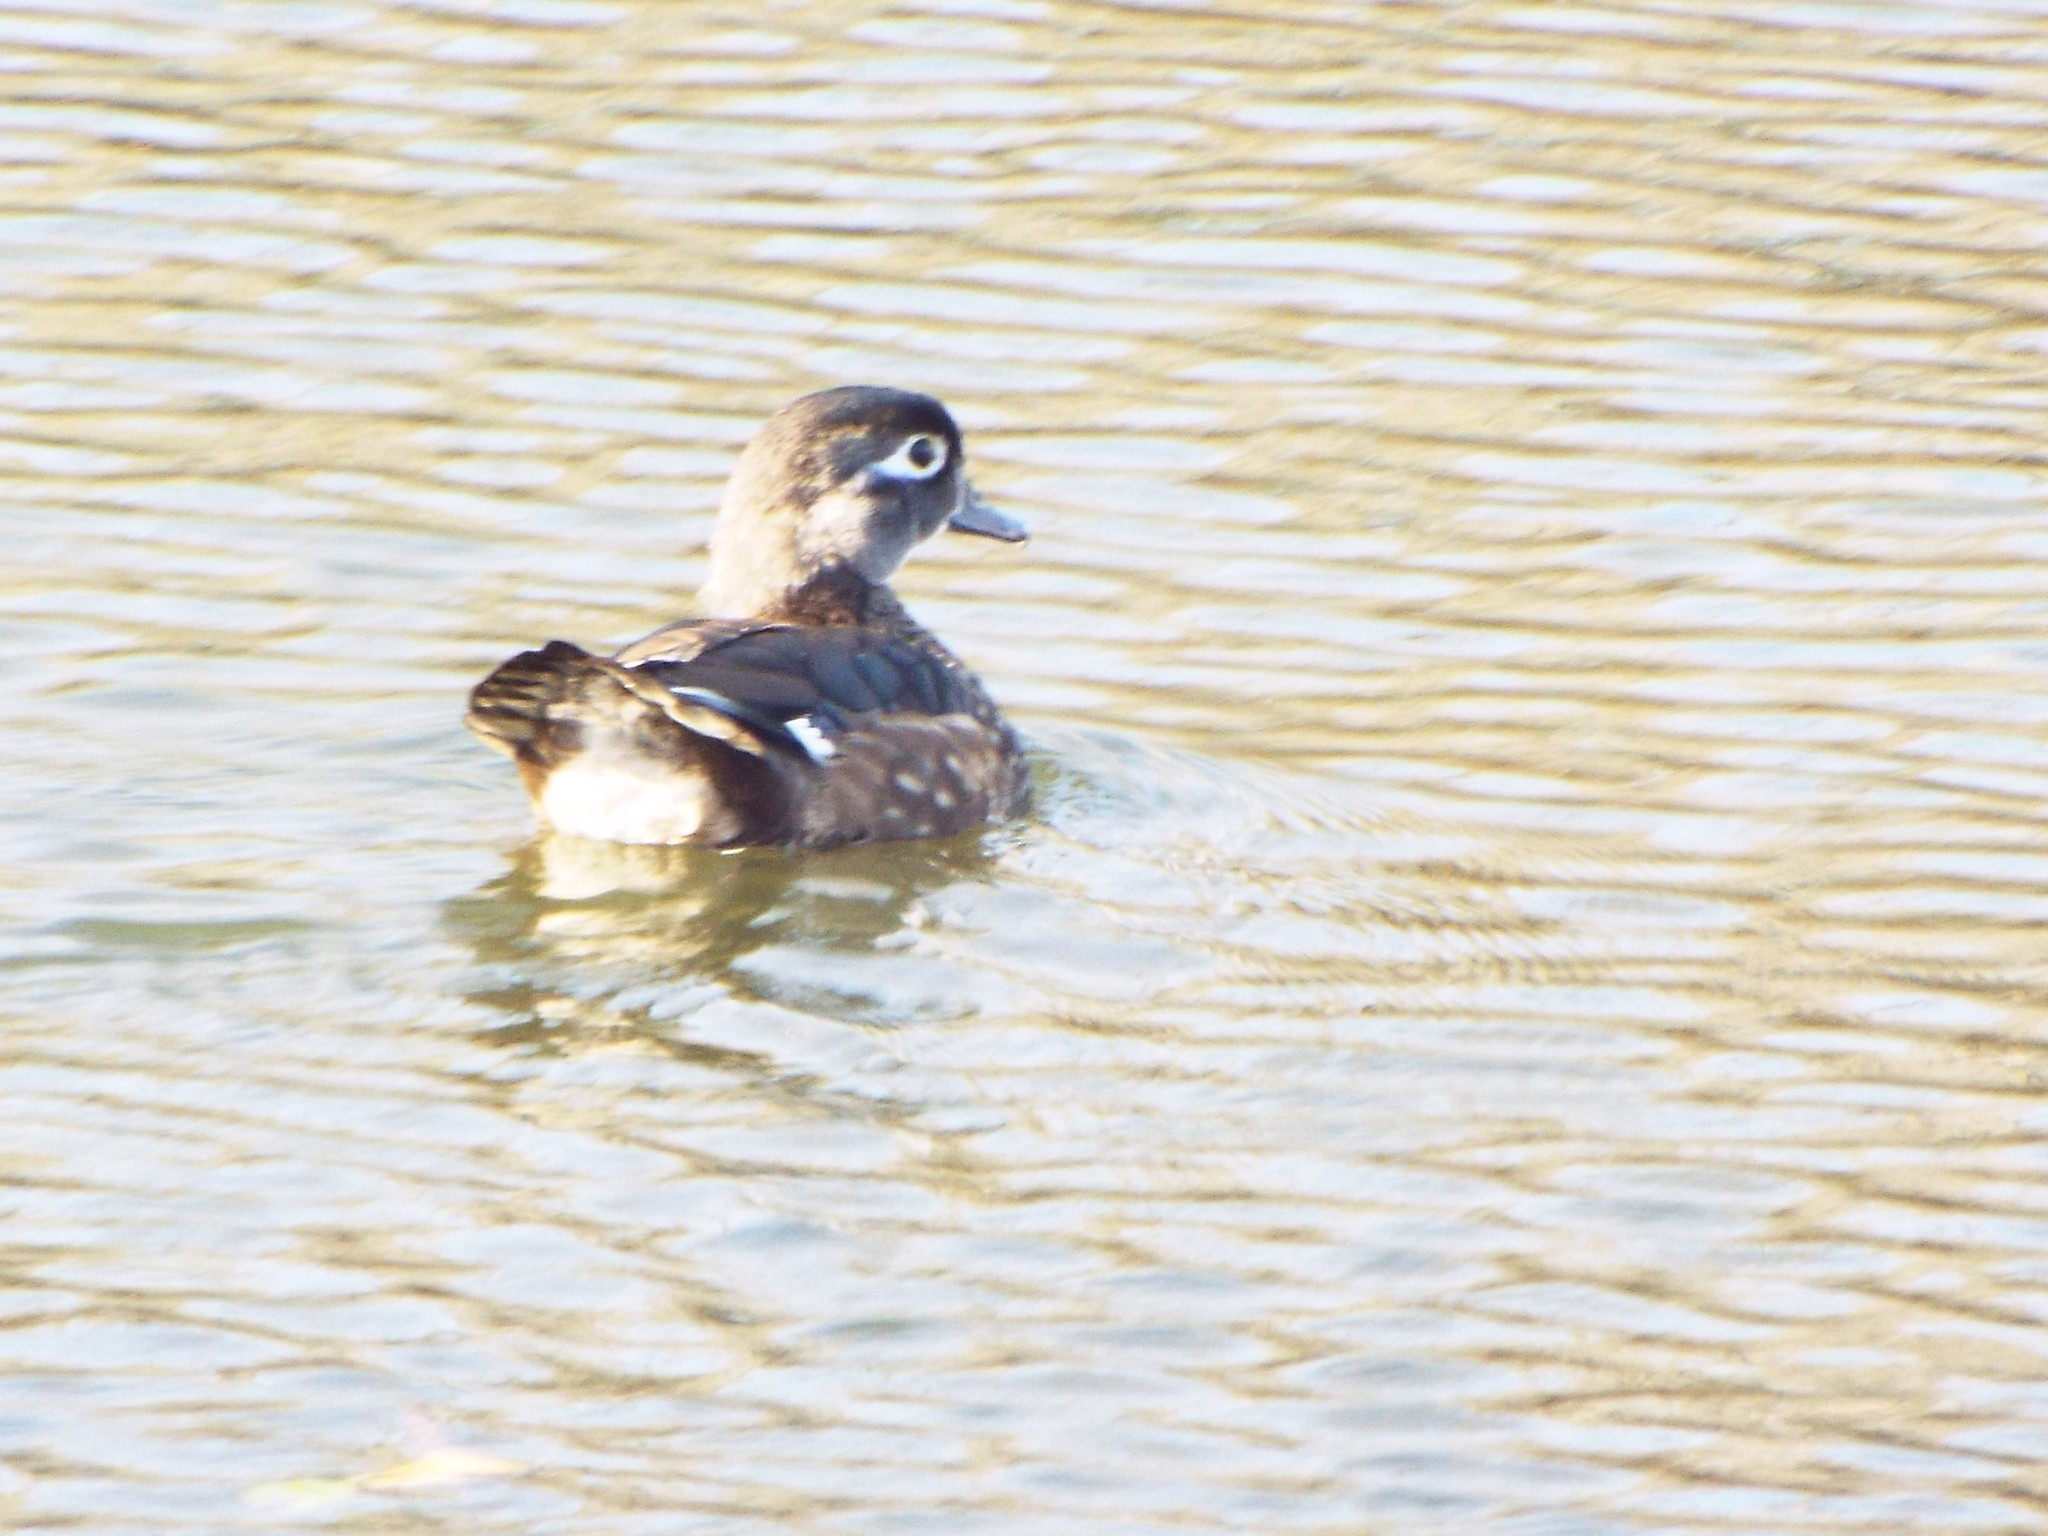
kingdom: Animalia
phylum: Chordata
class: Aves
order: Anseriformes
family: Anatidae
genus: Aix
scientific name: Aix sponsa
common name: Wood duck
